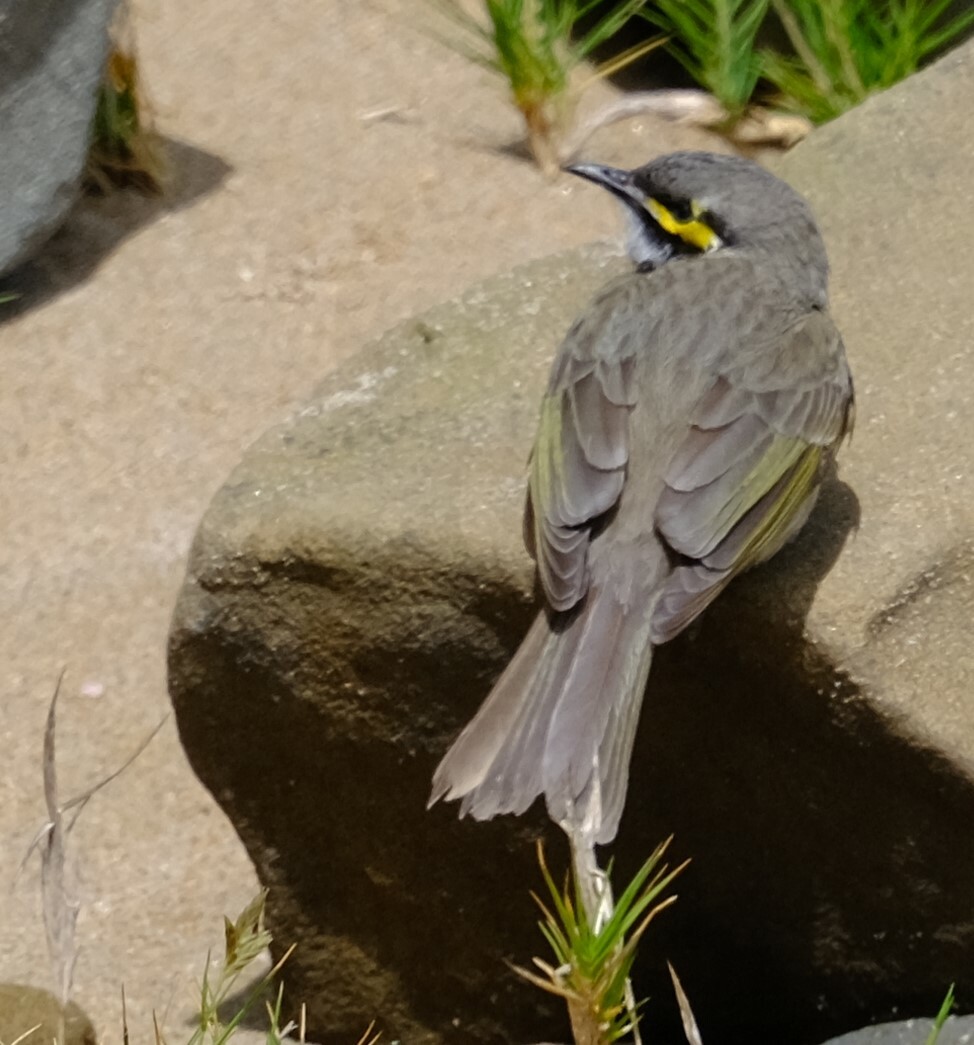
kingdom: Animalia
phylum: Chordata
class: Aves
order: Passeriformes
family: Meliphagidae
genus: Caligavis
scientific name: Caligavis chrysops
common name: Yellow-faced honeyeater
